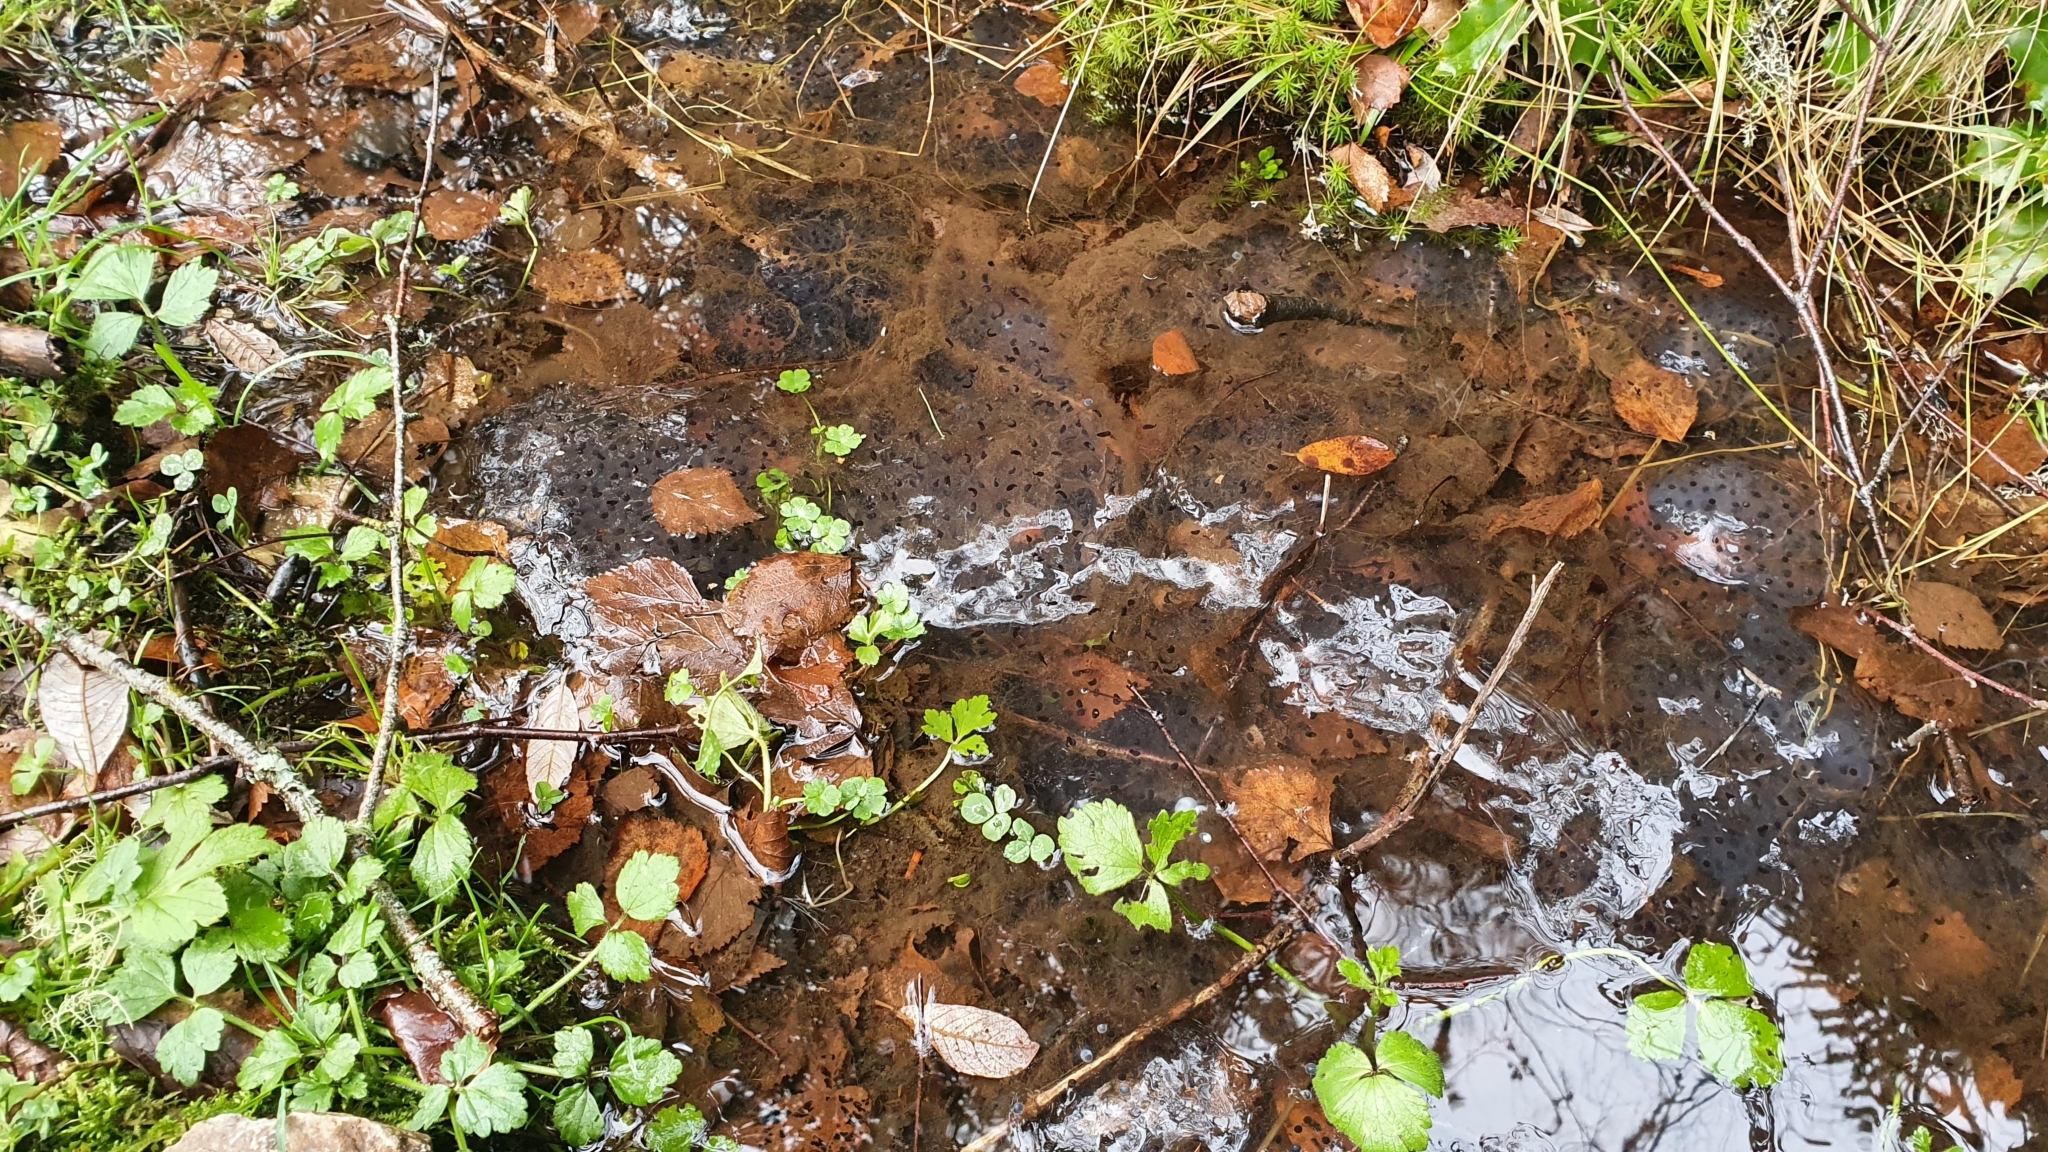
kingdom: Animalia
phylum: Chordata
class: Amphibia
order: Anura
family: Ranidae
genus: Rana
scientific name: Rana temporaria
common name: Common frog
